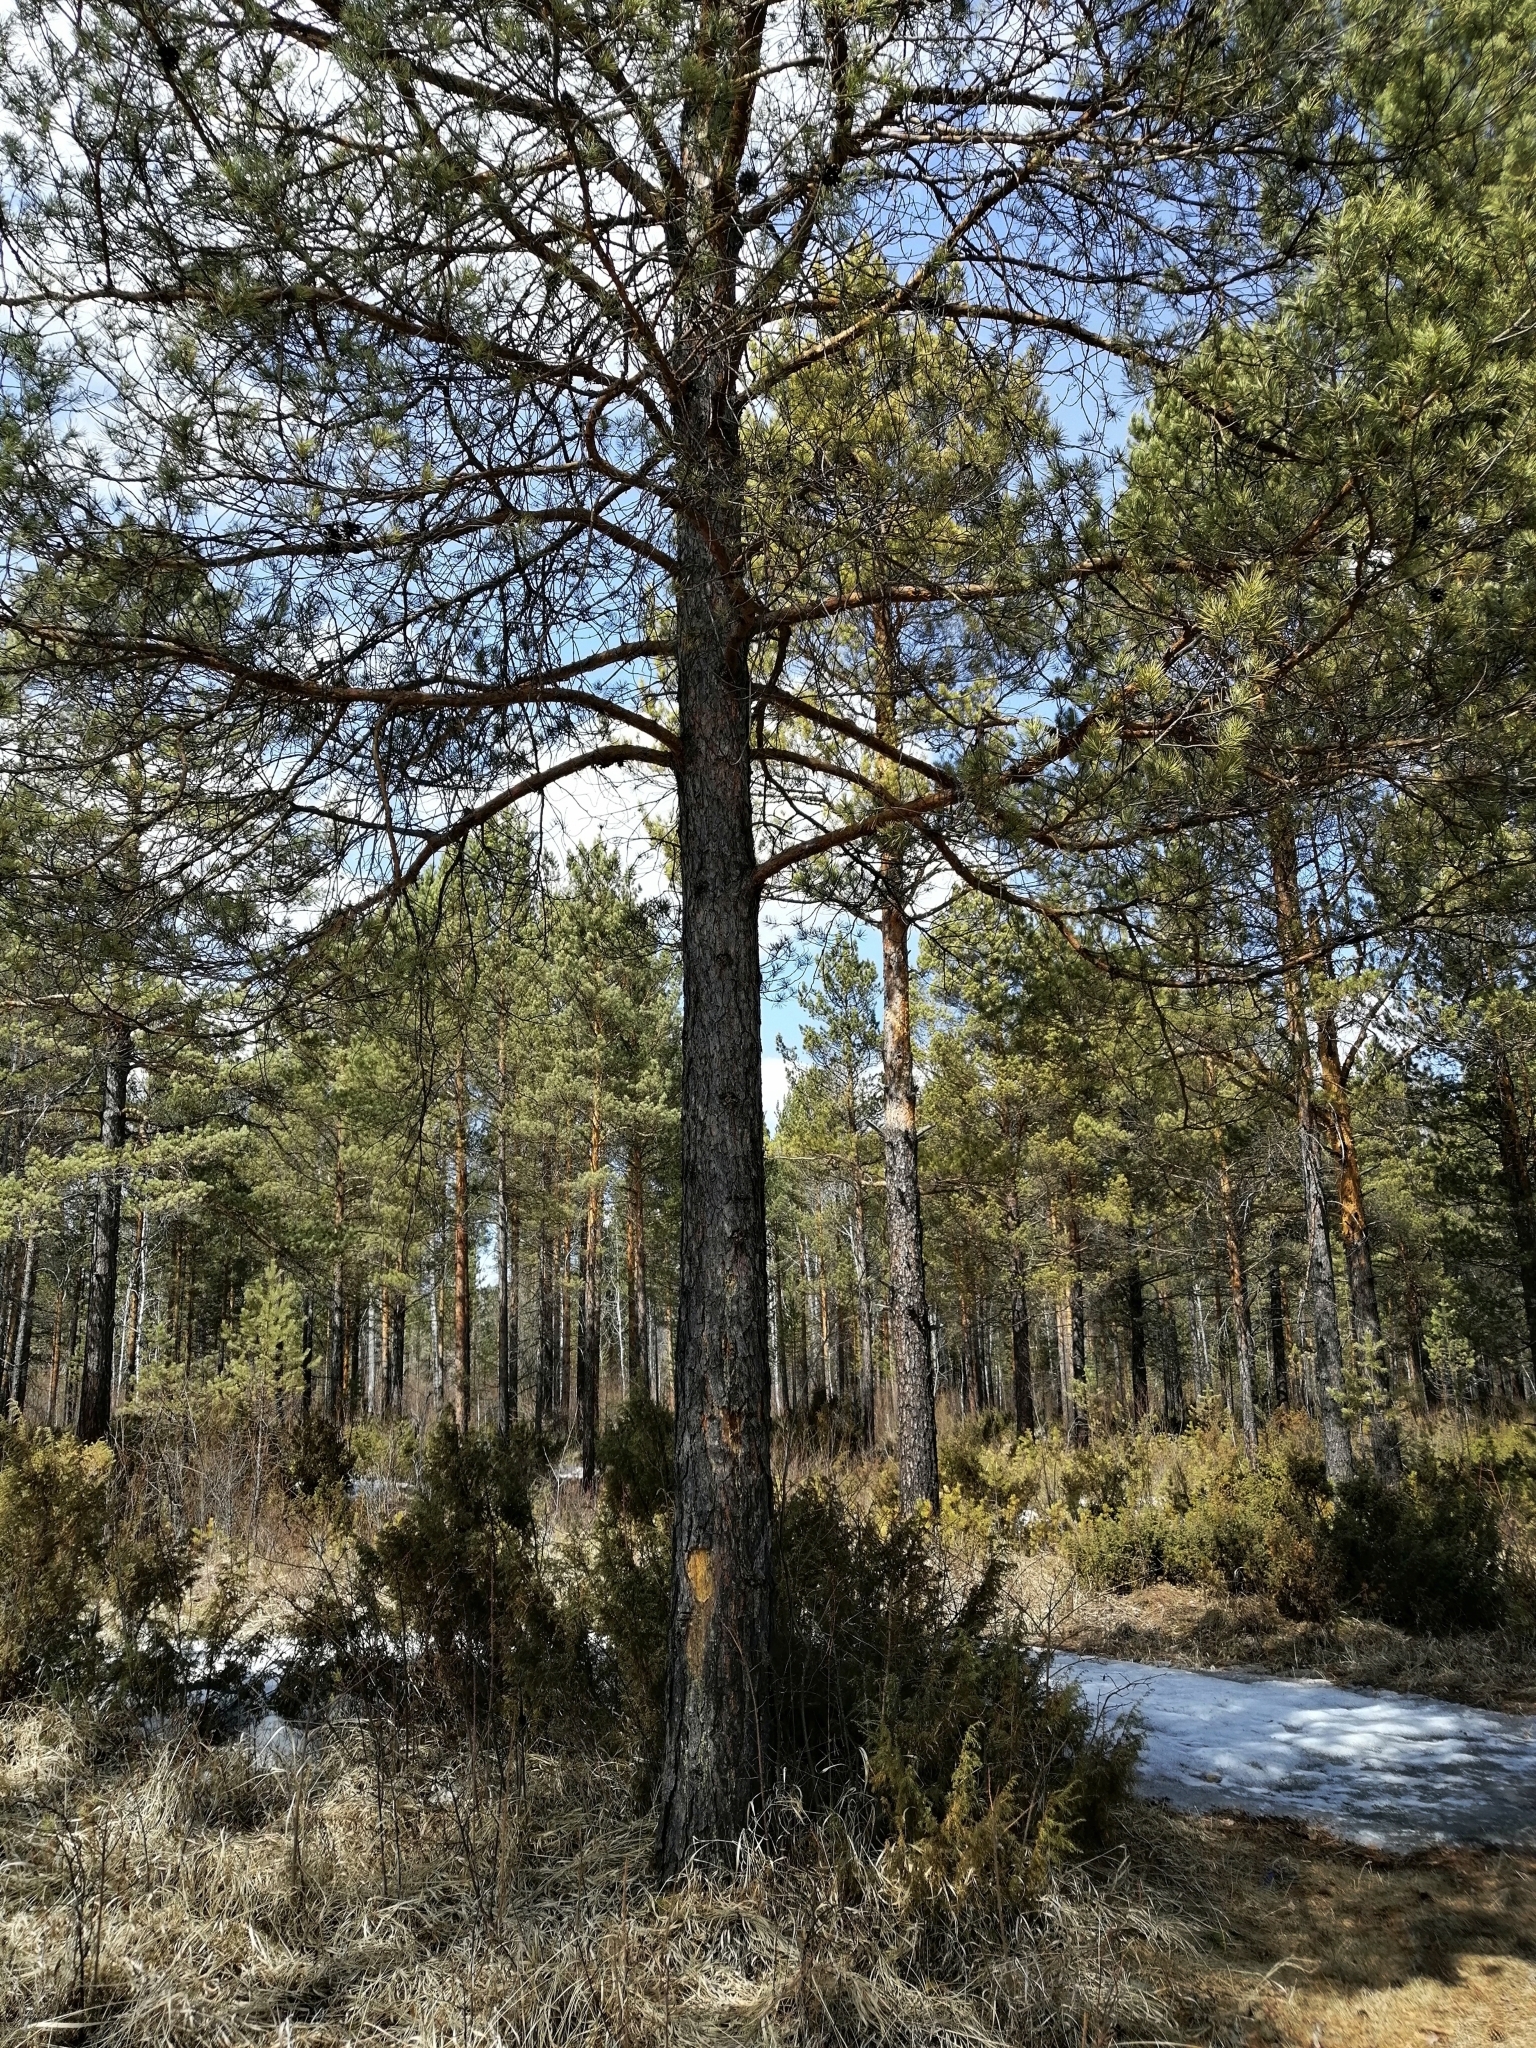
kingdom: Plantae
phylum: Tracheophyta
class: Pinopsida
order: Pinales
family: Pinaceae
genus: Pinus
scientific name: Pinus sylvestris
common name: Scots pine
